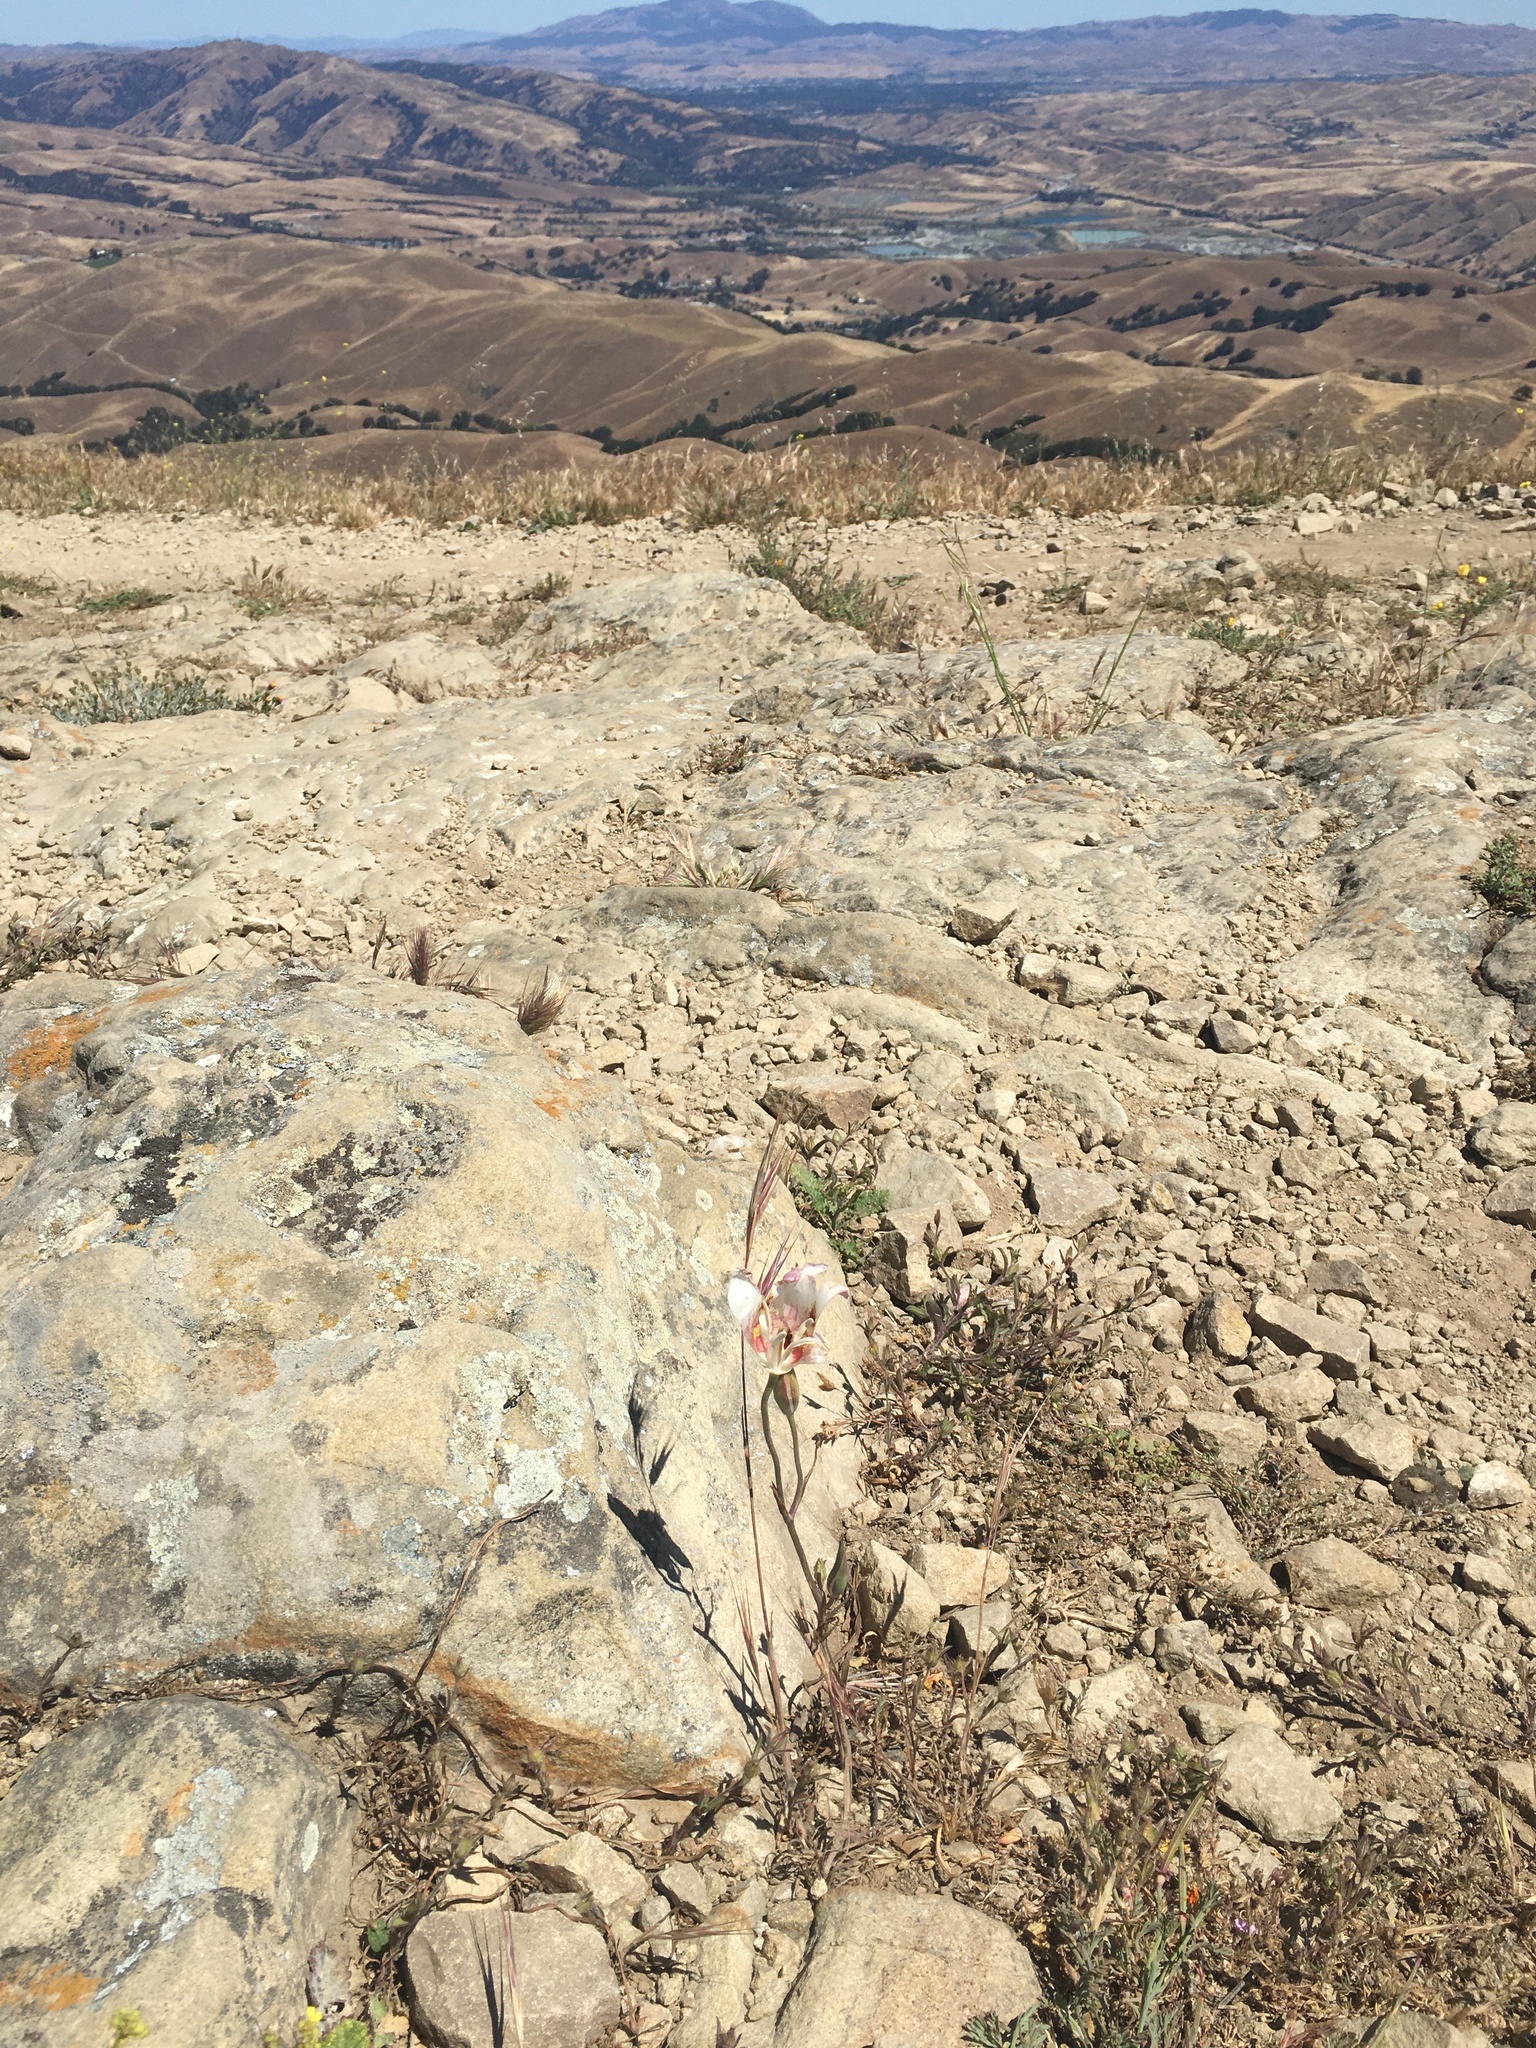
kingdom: Plantae
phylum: Tracheophyta
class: Liliopsida
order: Liliales
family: Liliaceae
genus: Calochortus
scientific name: Calochortus venustus
